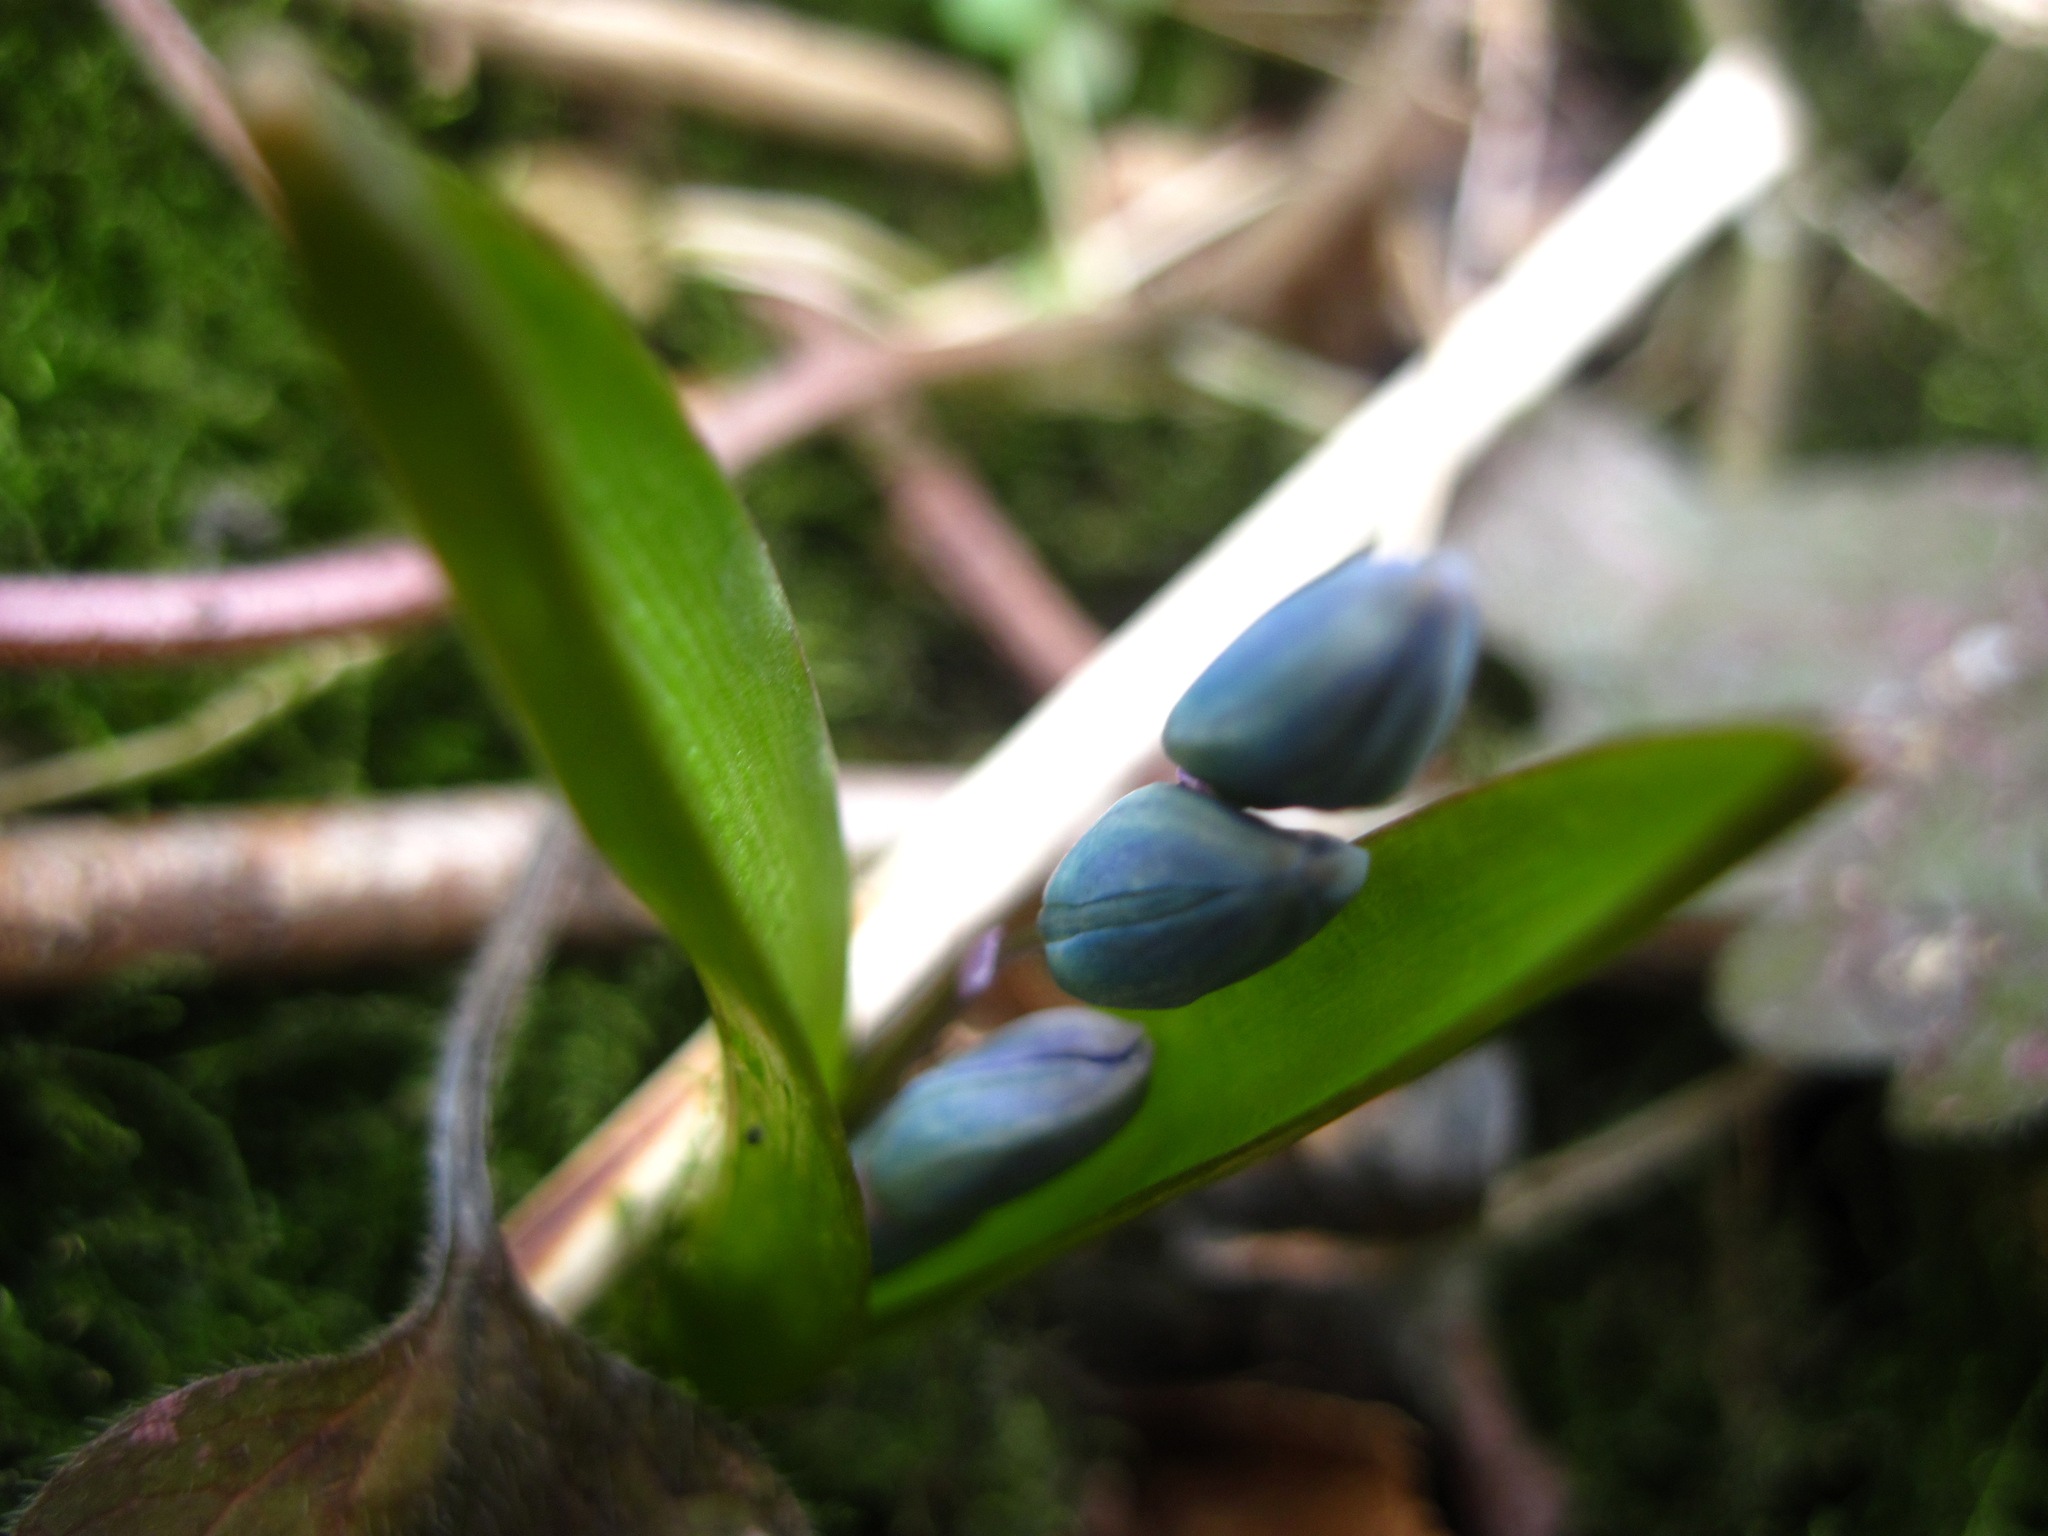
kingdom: Plantae
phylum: Tracheophyta
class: Liliopsida
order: Asparagales
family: Asparagaceae
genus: Scilla
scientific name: Scilla siberica
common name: Siberian squill
